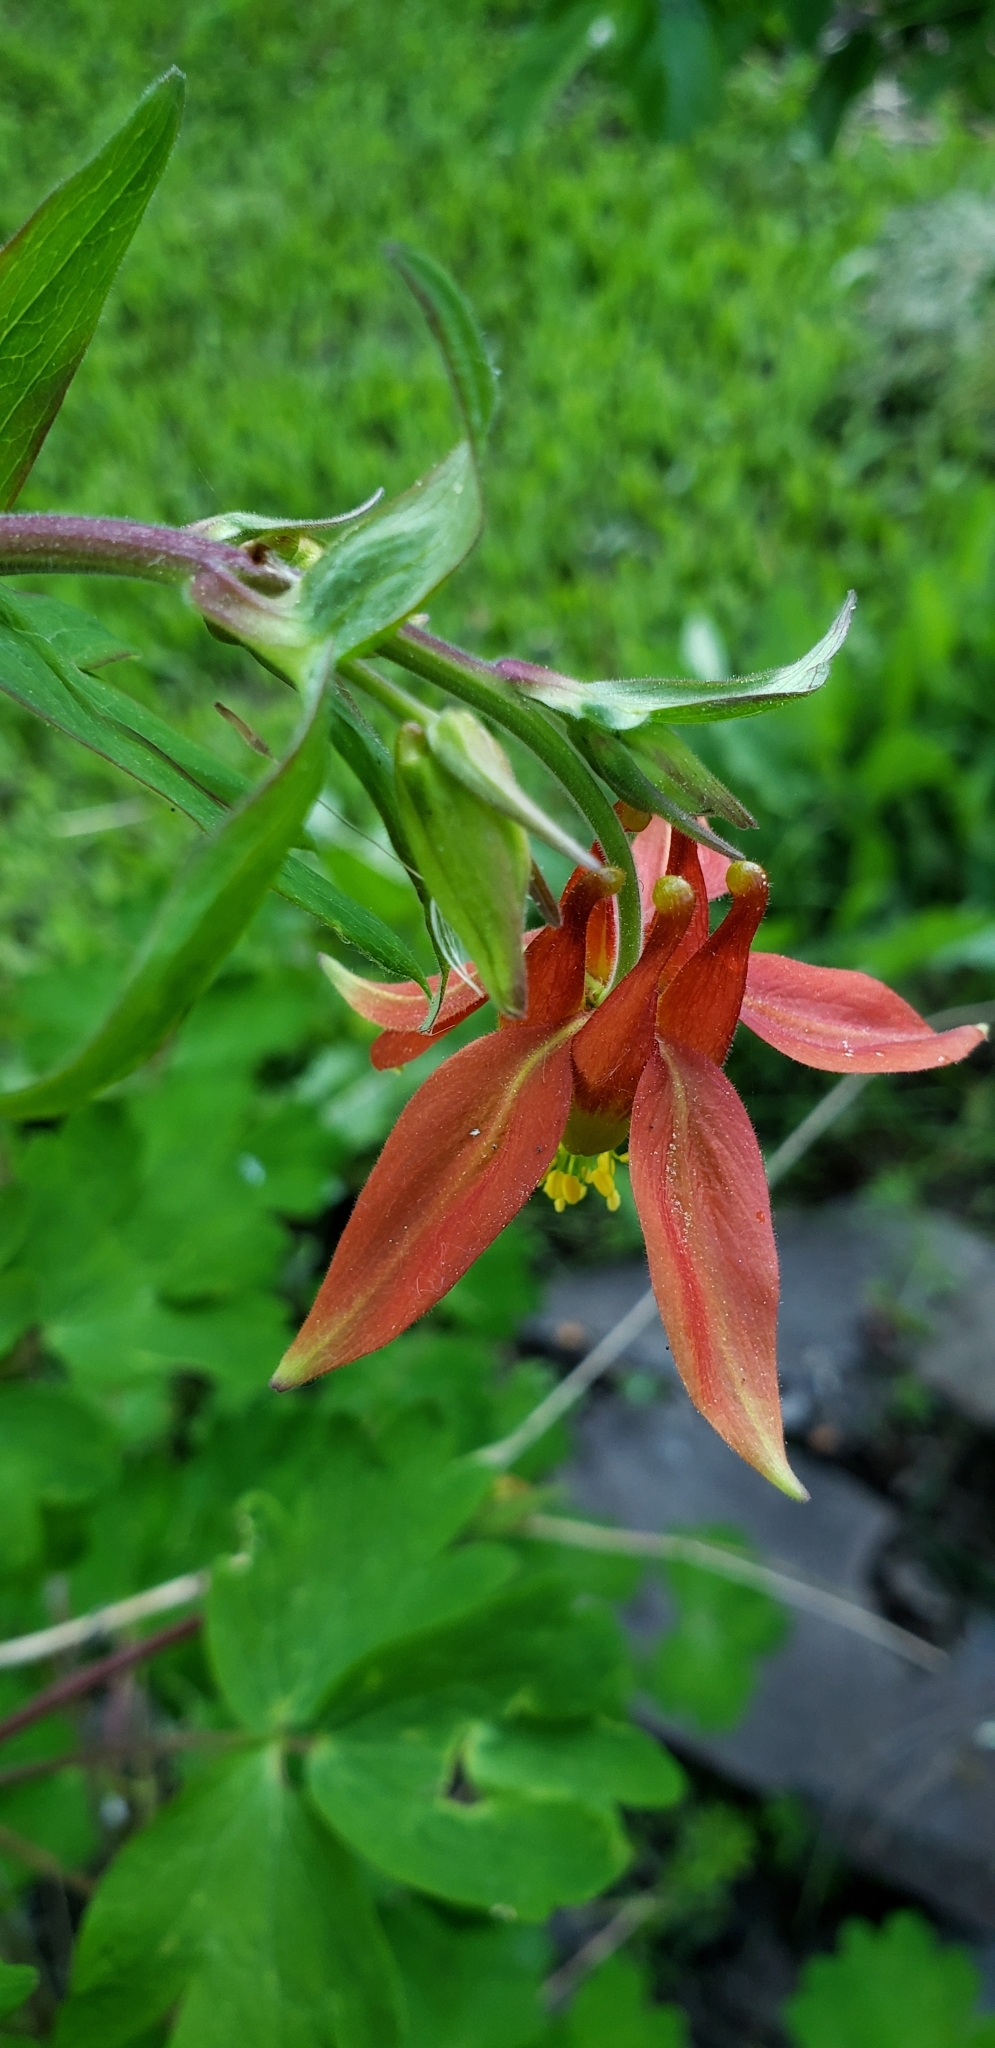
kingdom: Plantae
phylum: Tracheophyta
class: Magnoliopsida
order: Ranunculales
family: Ranunculaceae
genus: Aquilegia
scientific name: Aquilegia formosa
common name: Sitka columbine
